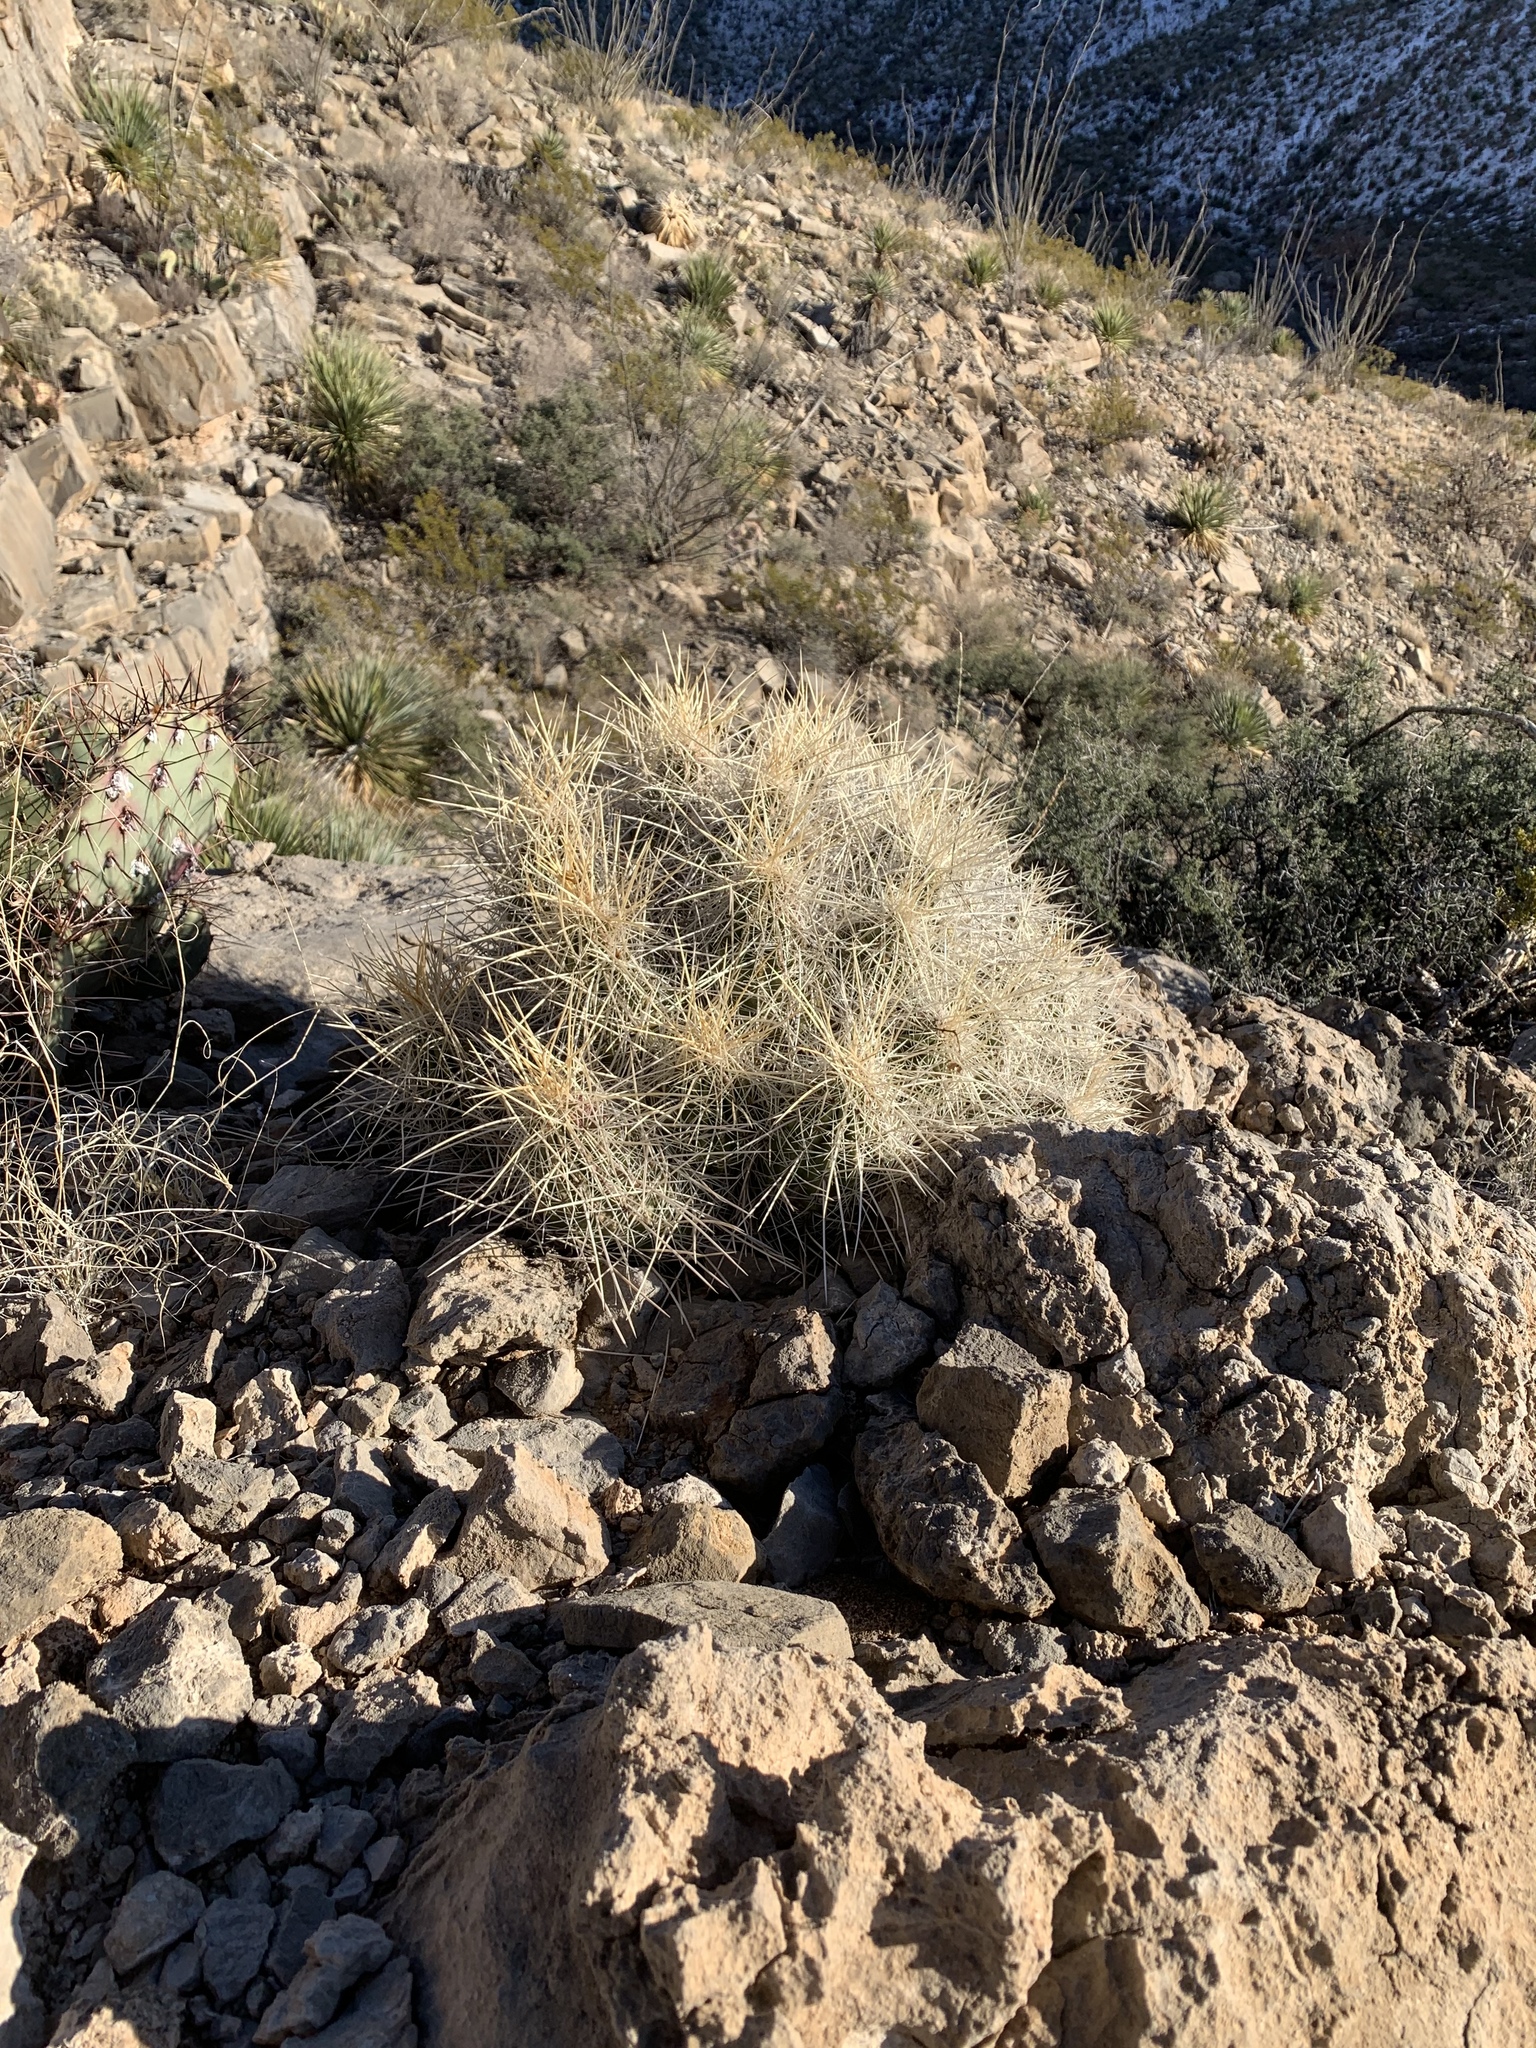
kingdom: Plantae
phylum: Tracheophyta
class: Magnoliopsida
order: Caryophyllales
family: Cactaceae
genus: Echinocereus
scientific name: Echinocereus stramineus
